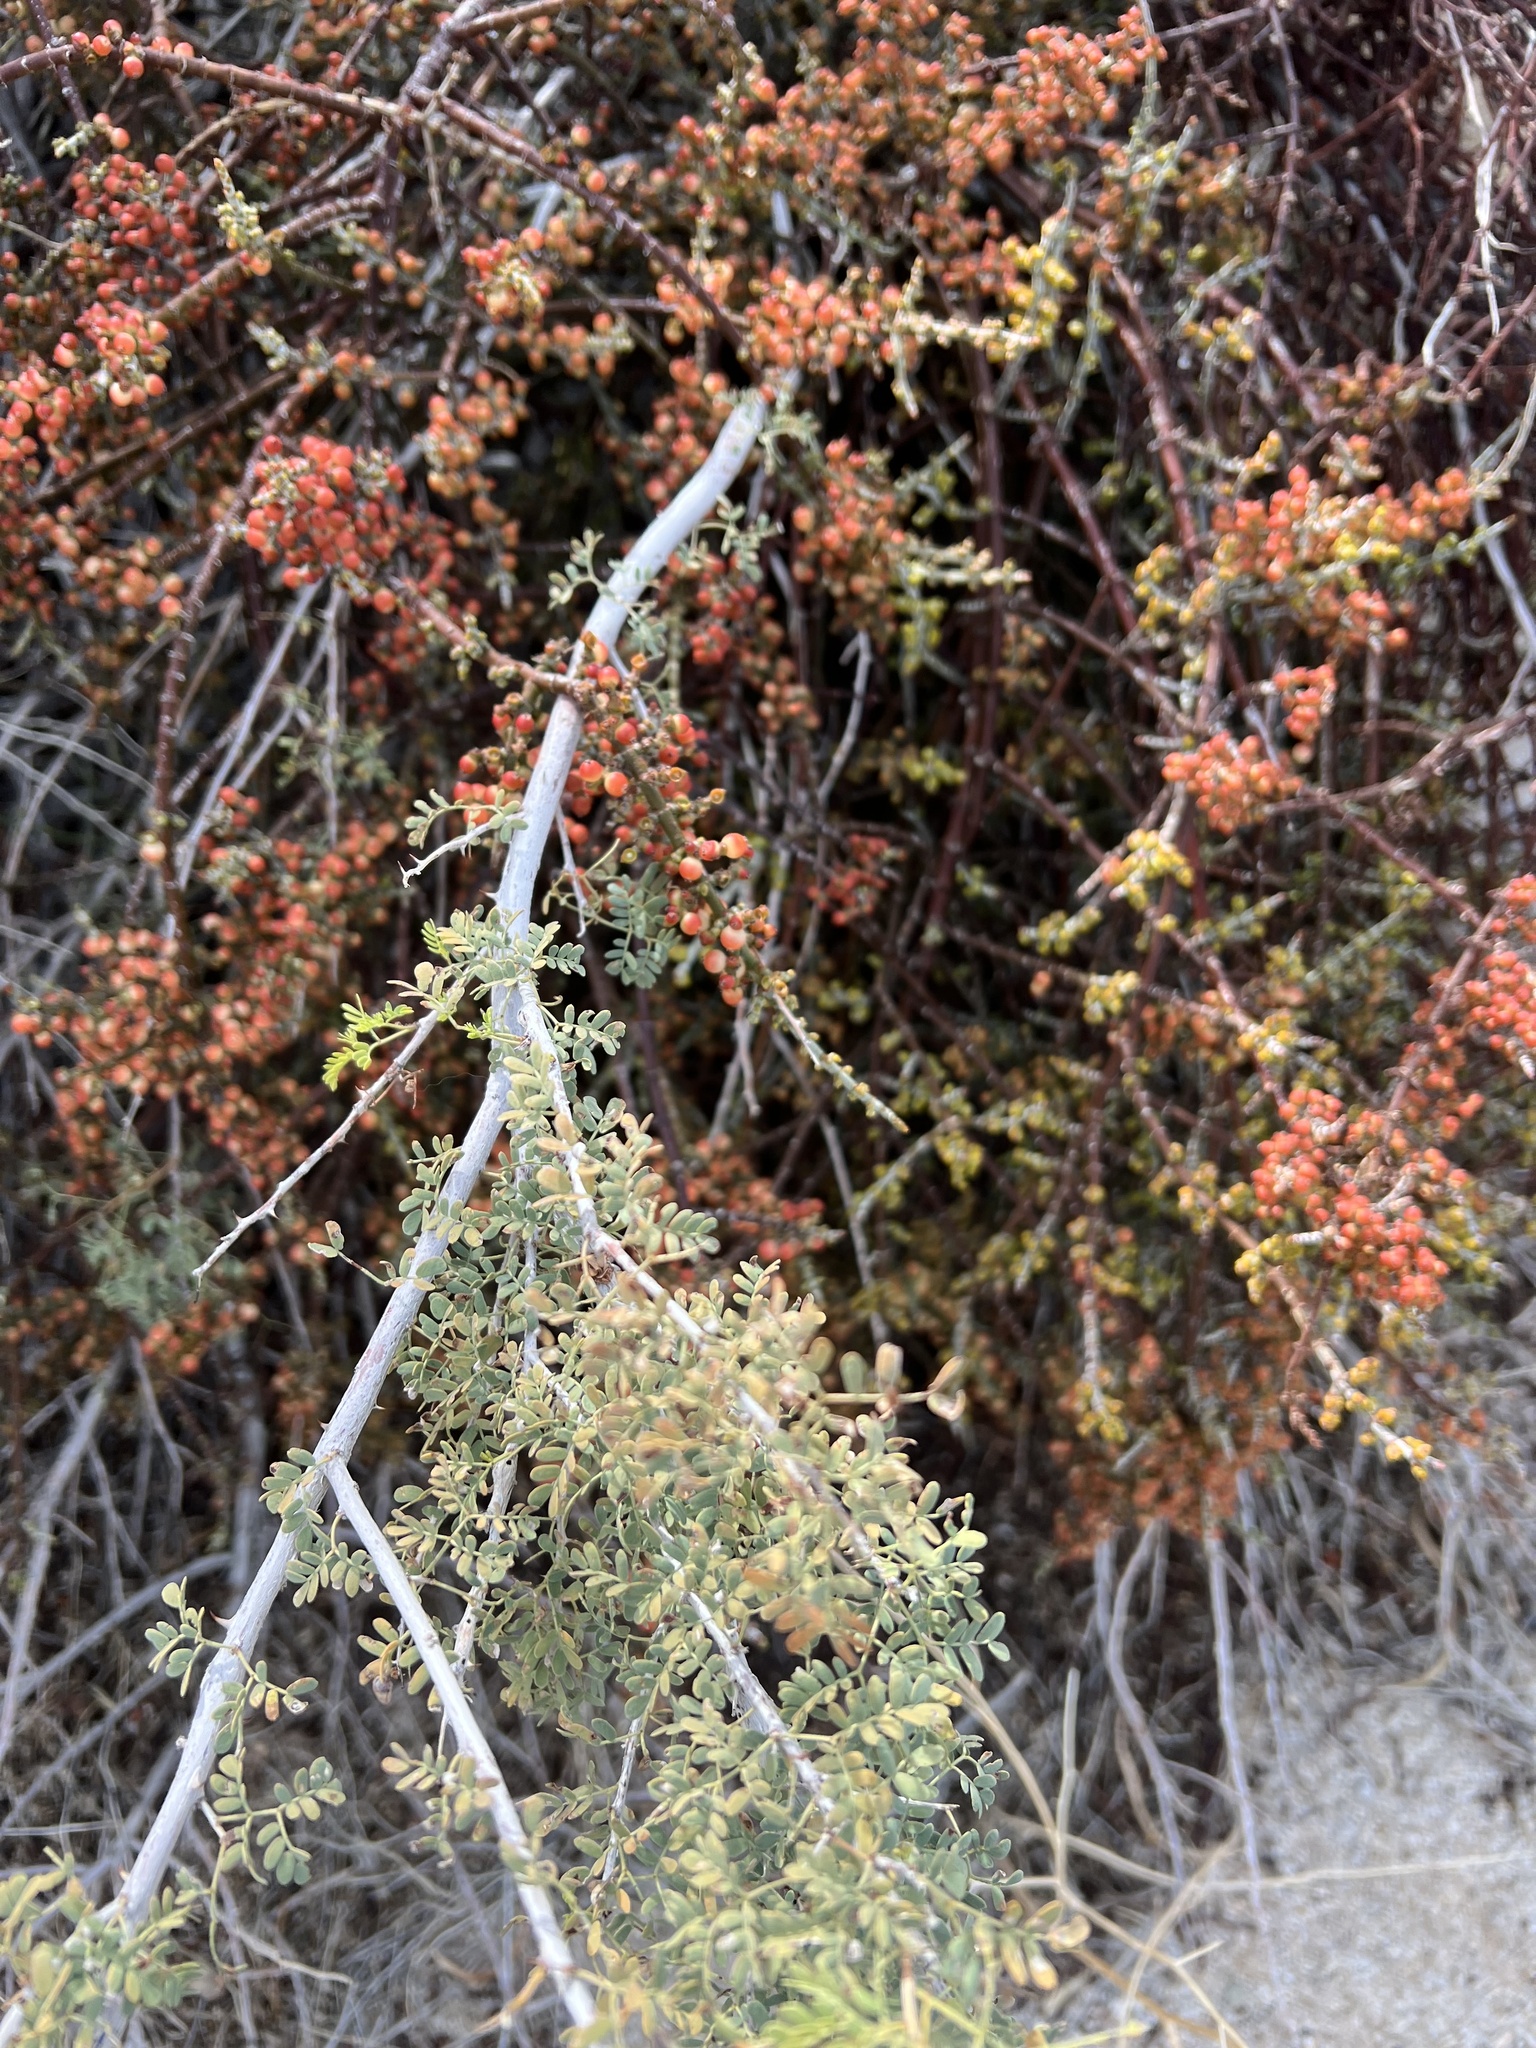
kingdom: Plantae
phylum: Tracheophyta
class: Magnoliopsida
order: Santalales
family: Viscaceae
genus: Phoradendron
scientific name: Phoradendron californicum
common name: Acacia mistletoe
